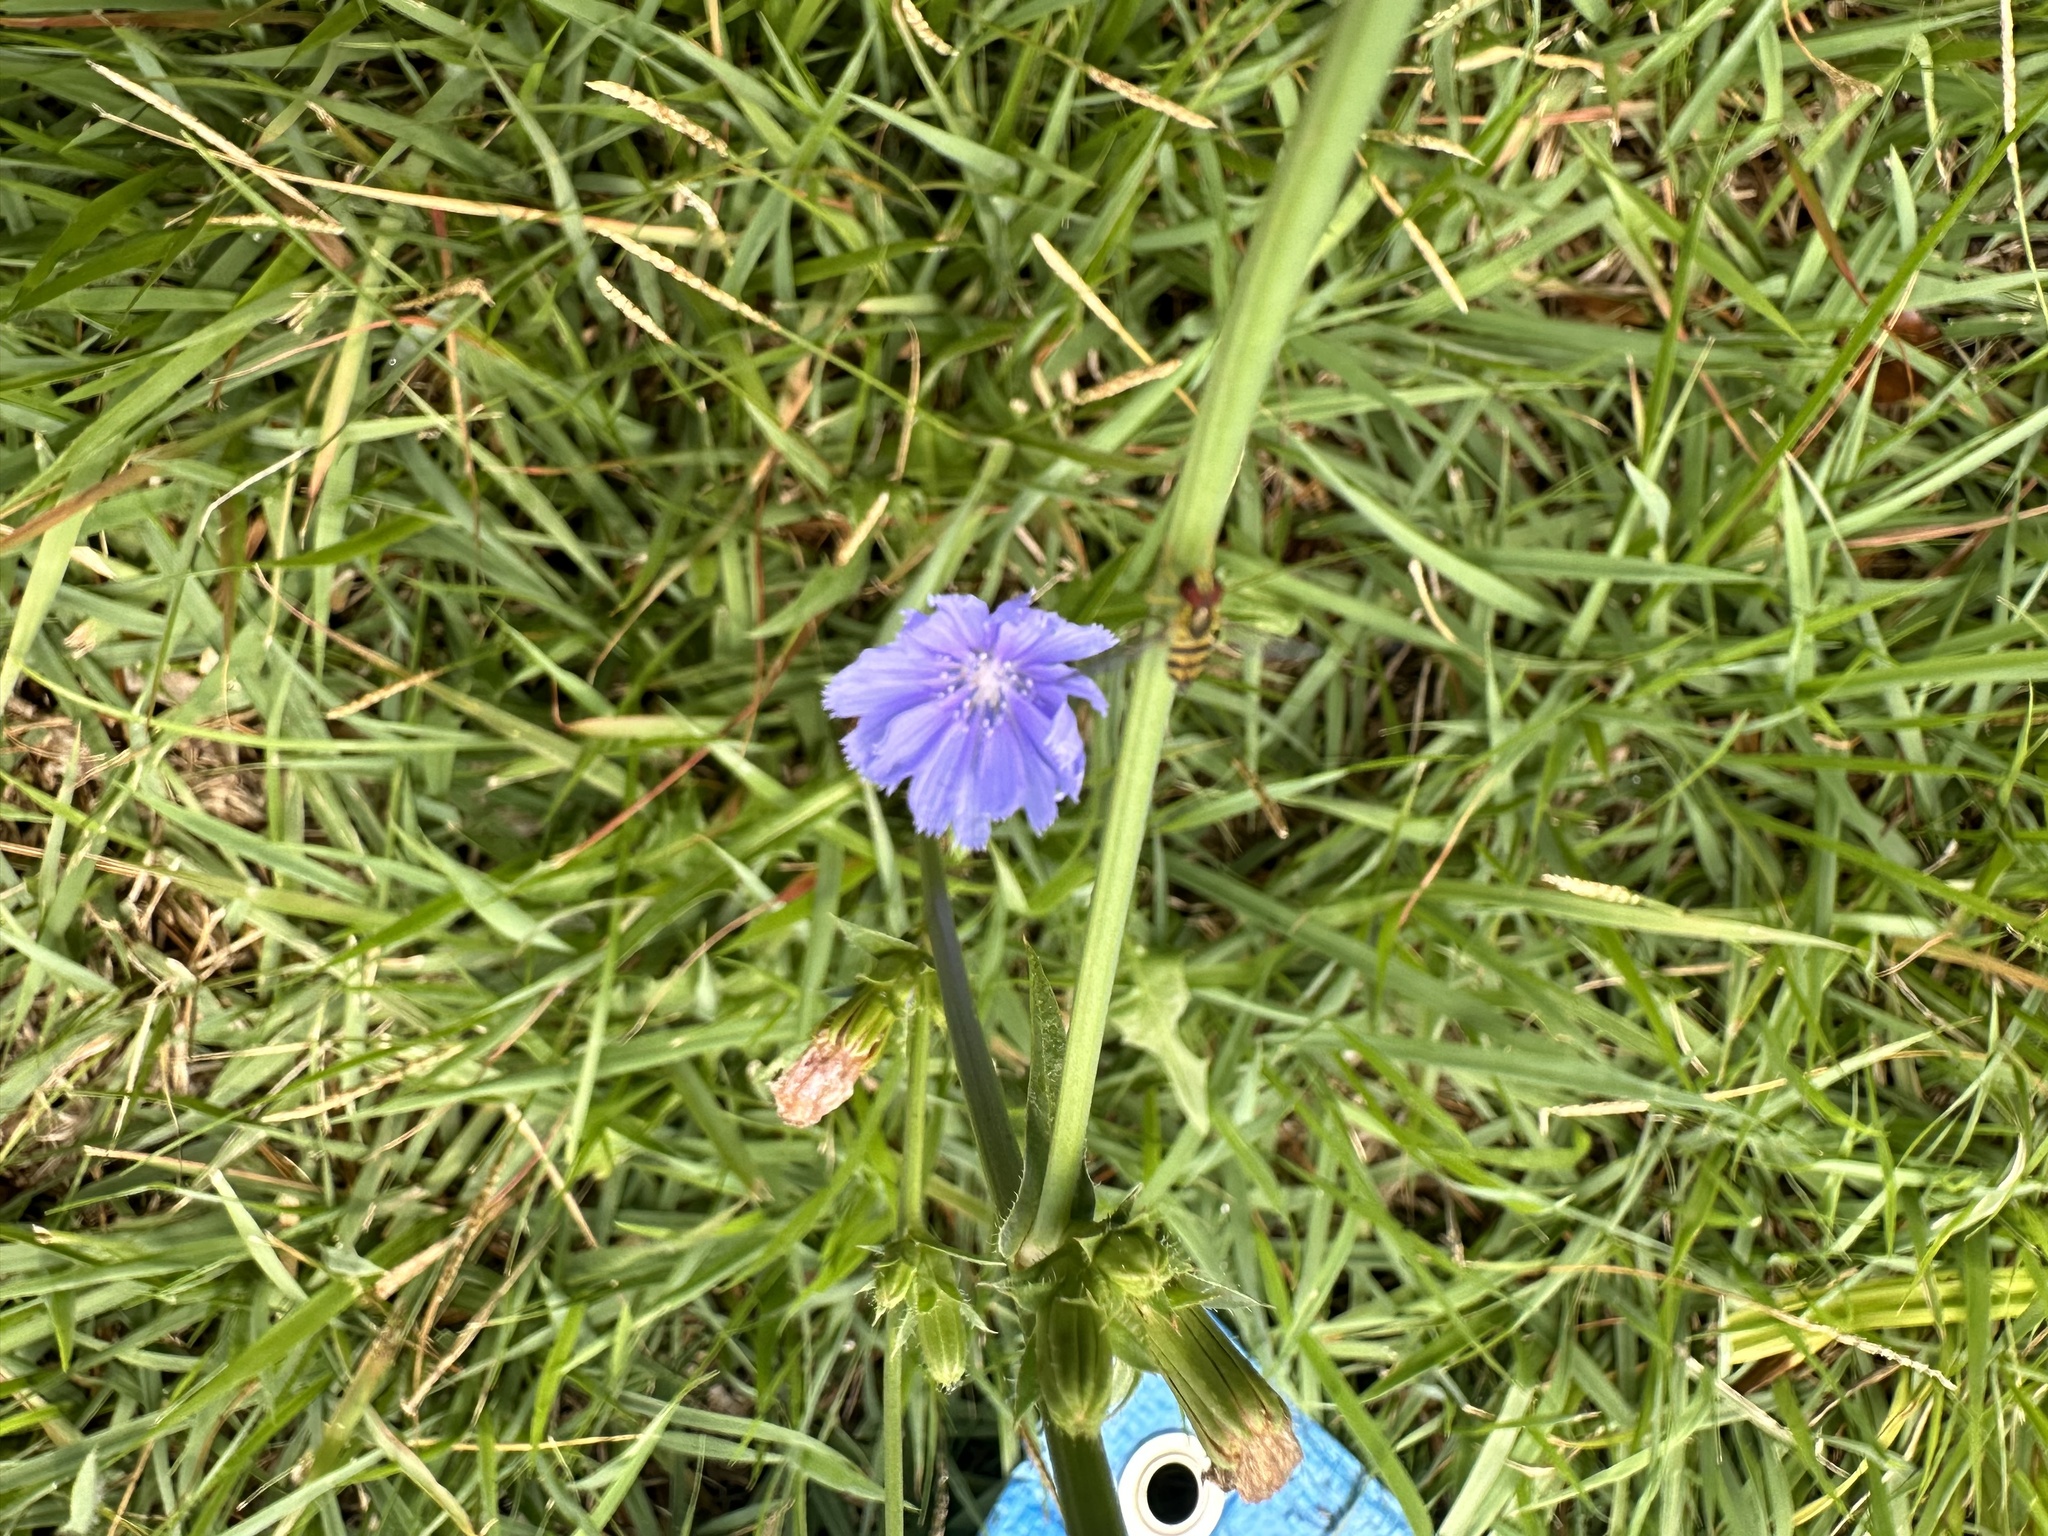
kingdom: Plantae
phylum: Tracheophyta
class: Magnoliopsida
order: Asterales
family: Asteraceae
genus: Cichorium
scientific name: Cichorium intybus
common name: Chicory
